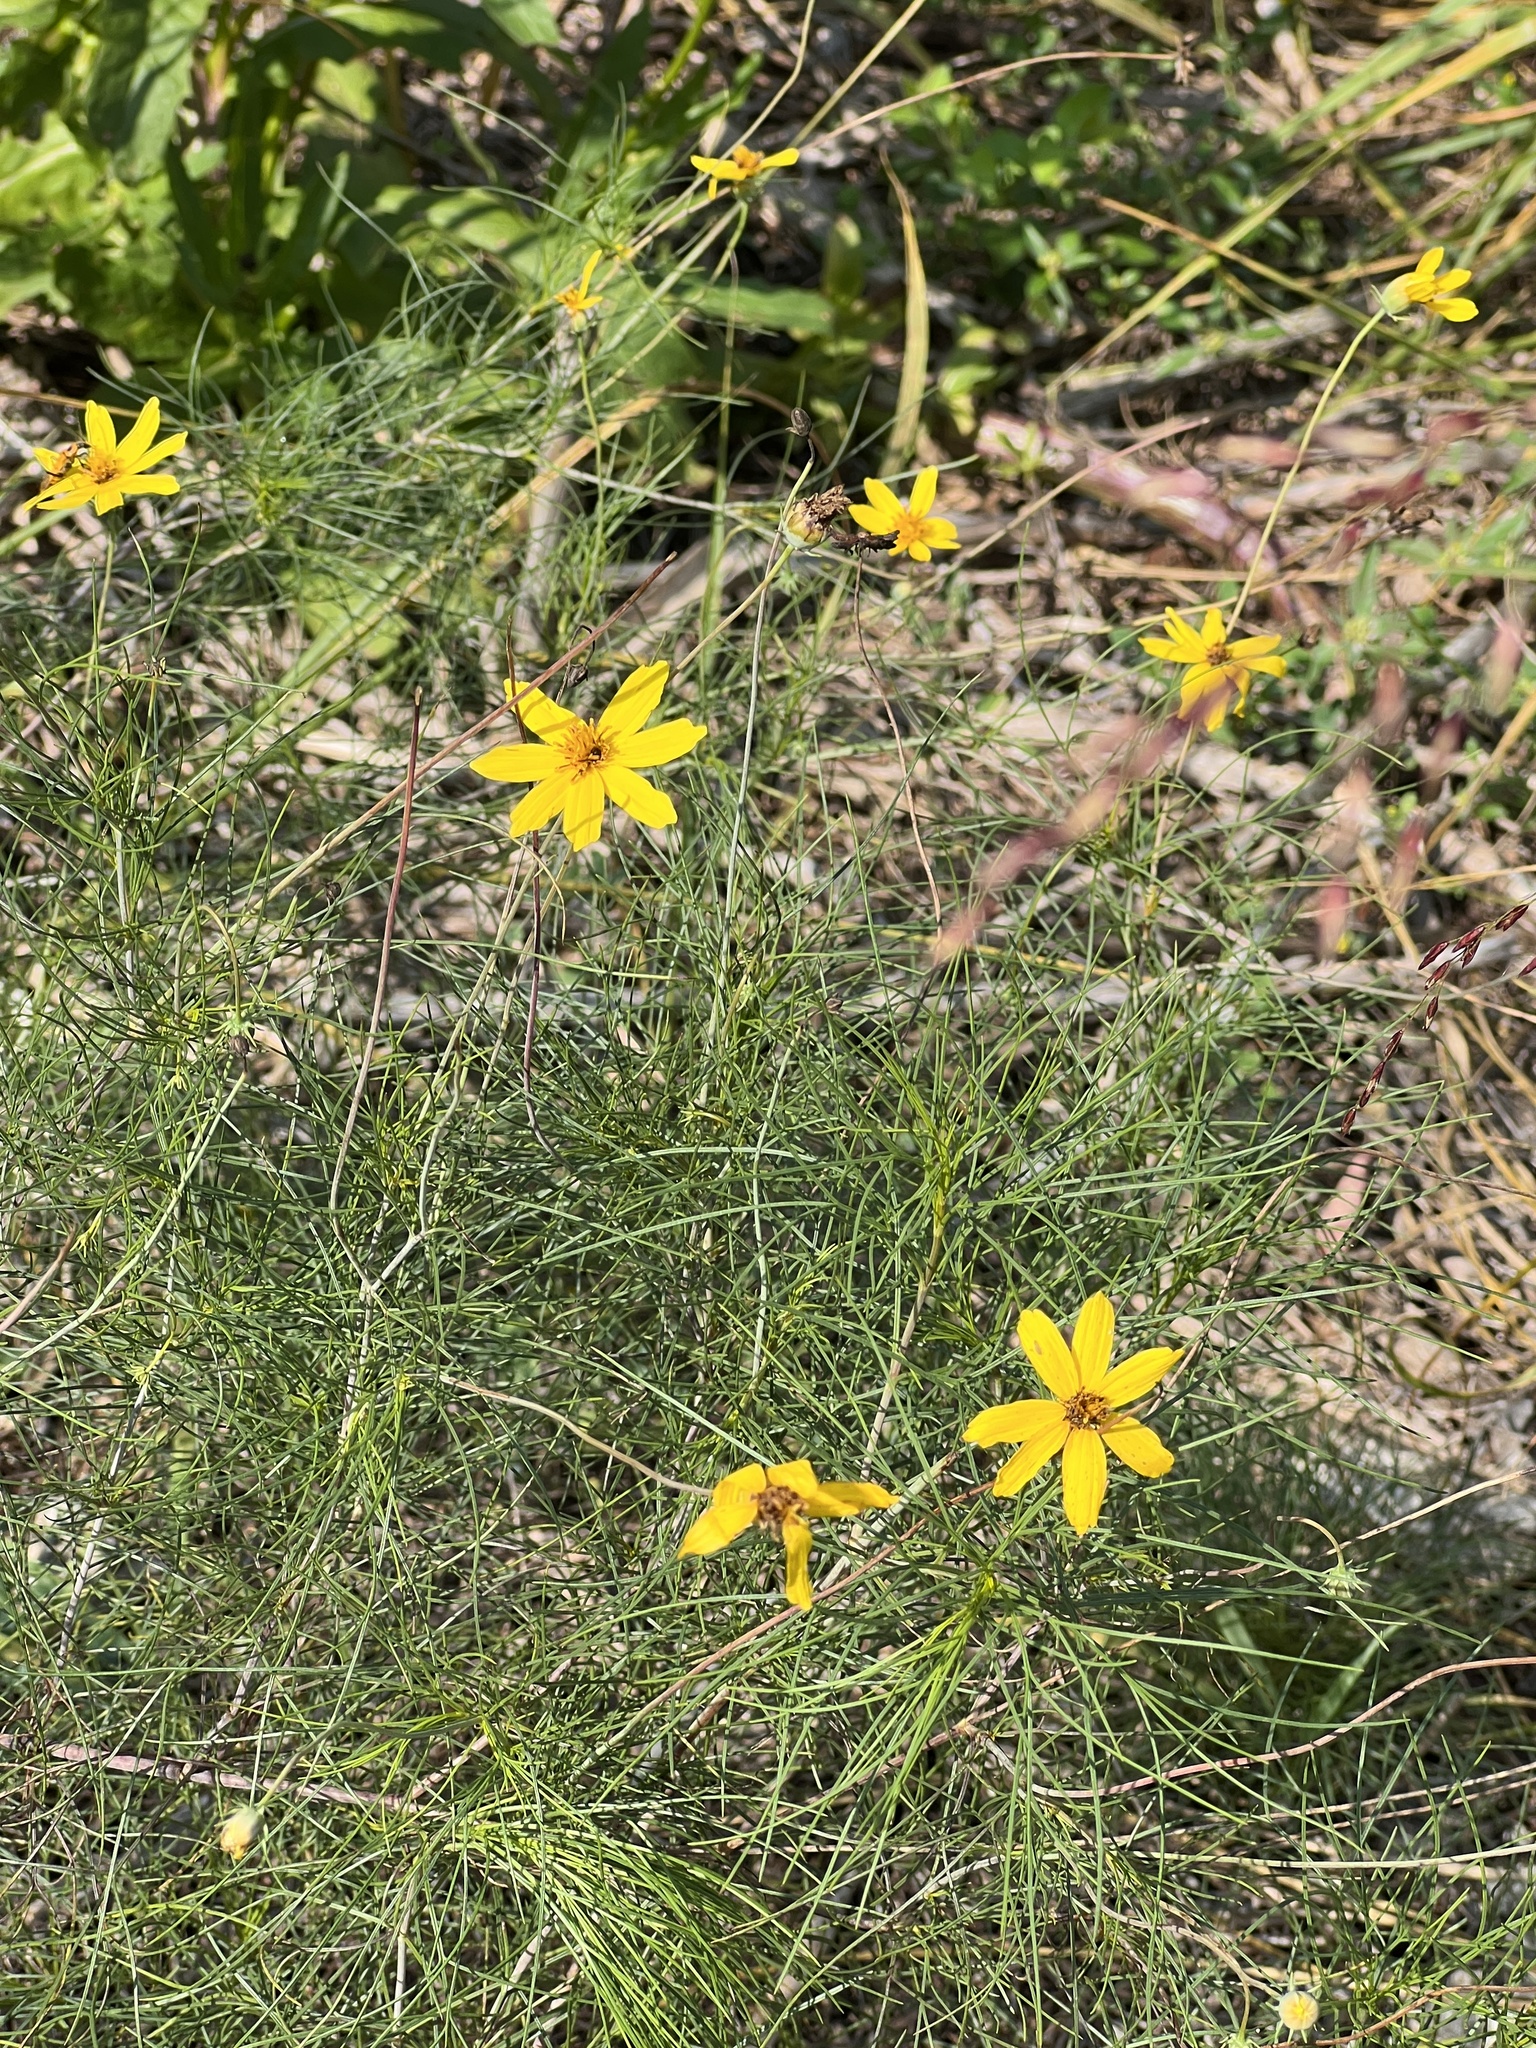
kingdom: Plantae
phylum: Tracheophyta
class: Magnoliopsida
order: Asterales
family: Asteraceae
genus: Thelesperma
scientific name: Thelesperma filifolium
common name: Stiff greenthread
